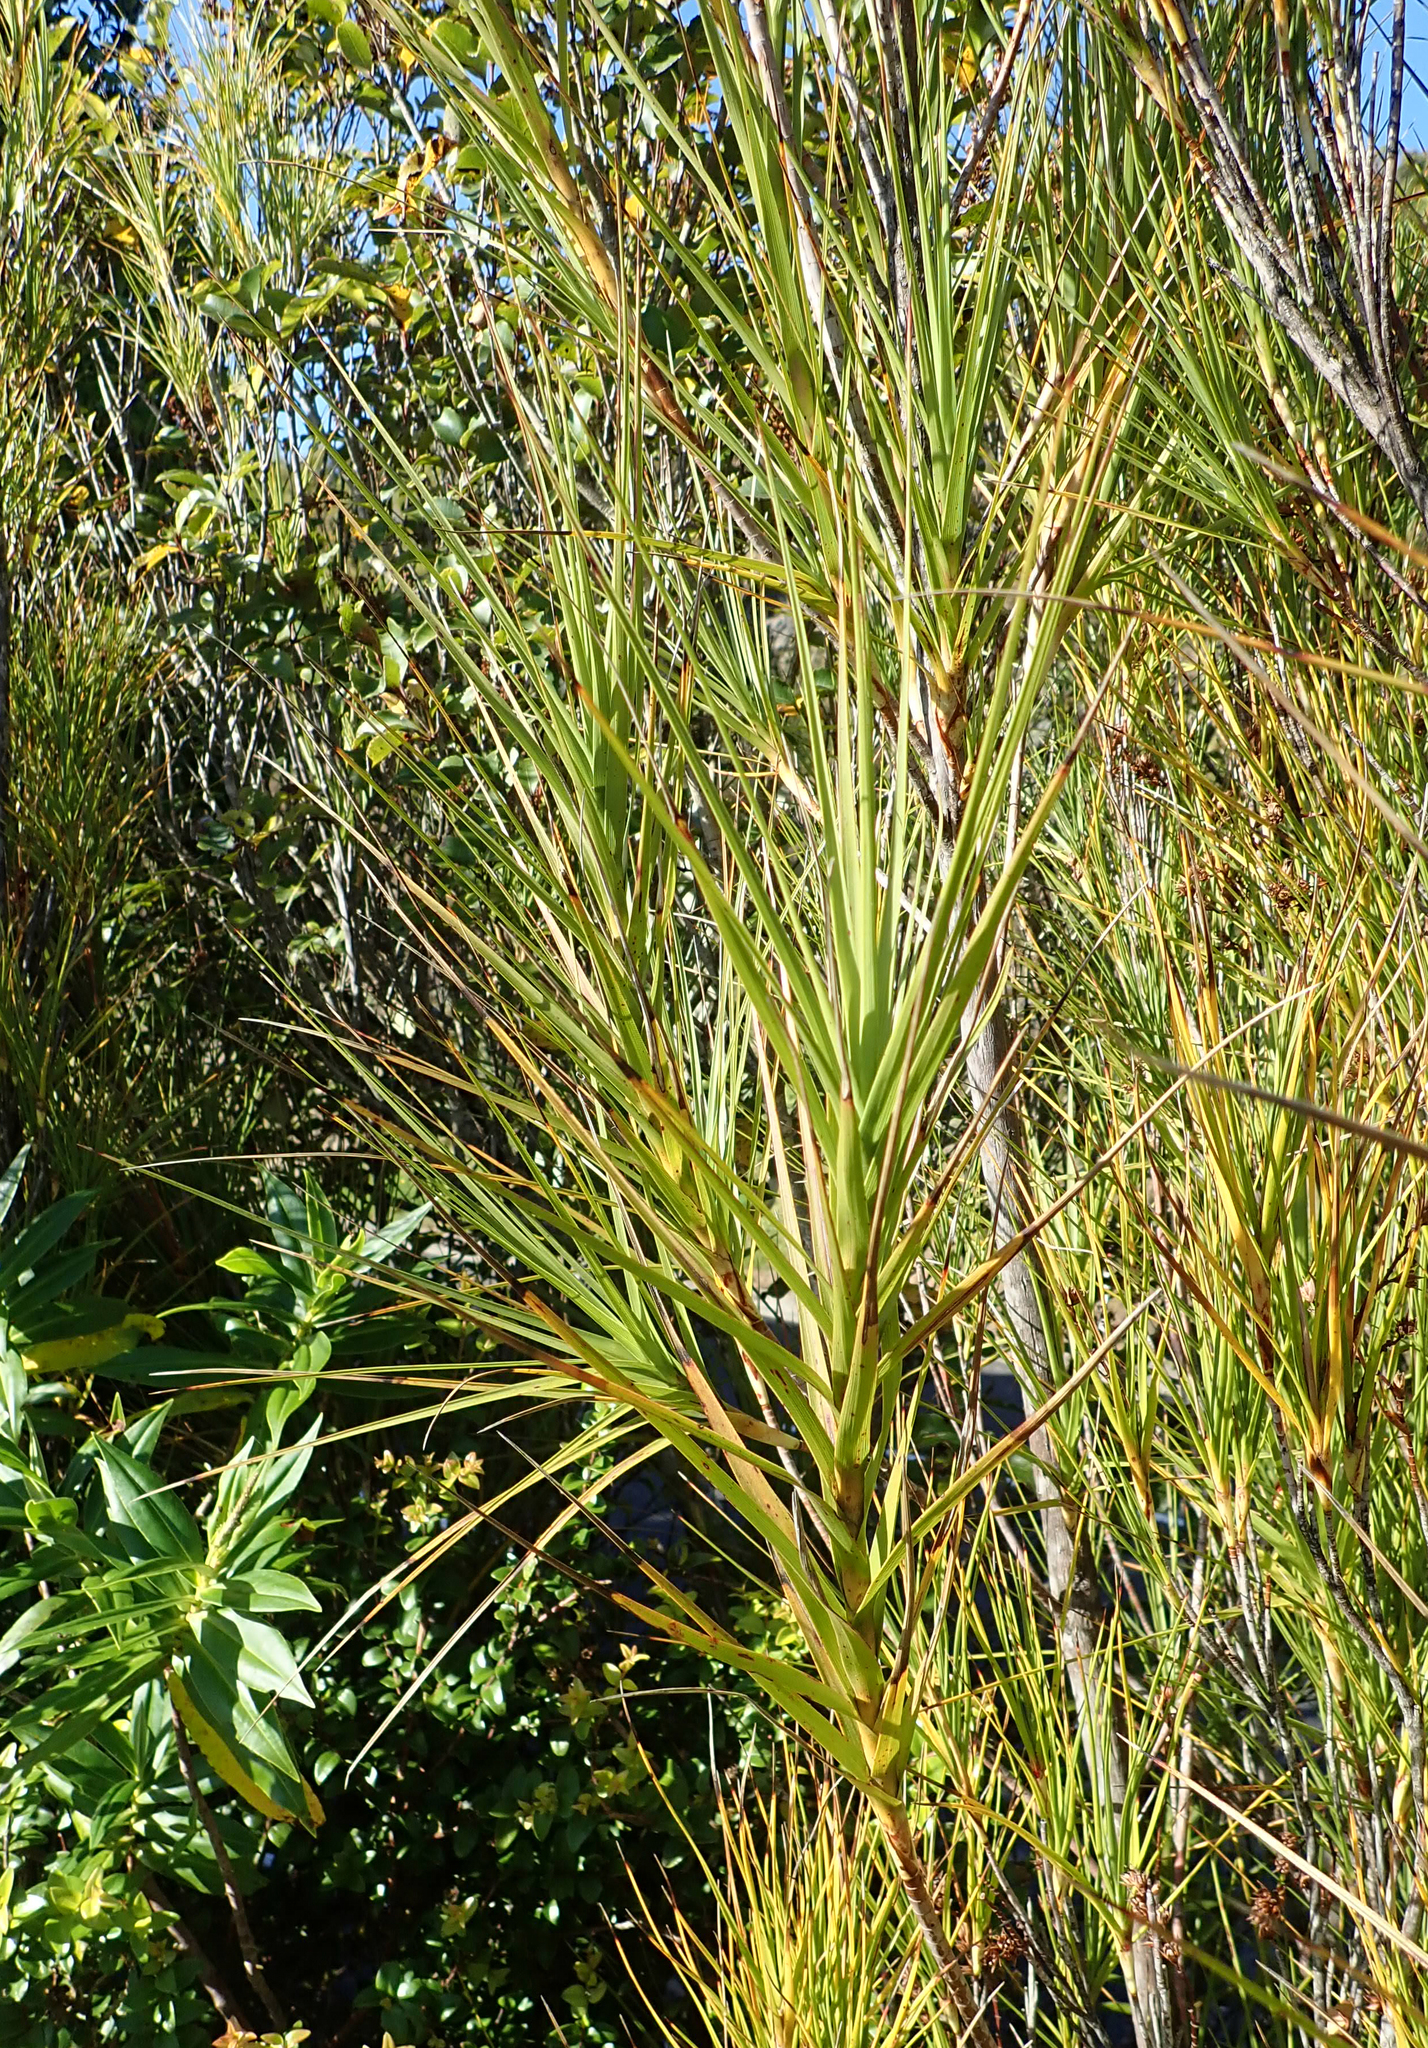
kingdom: Plantae
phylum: Tracheophyta
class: Magnoliopsida
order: Ericales
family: Ericaceae
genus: Dracophyllum
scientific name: Dracophyllum longifolium
